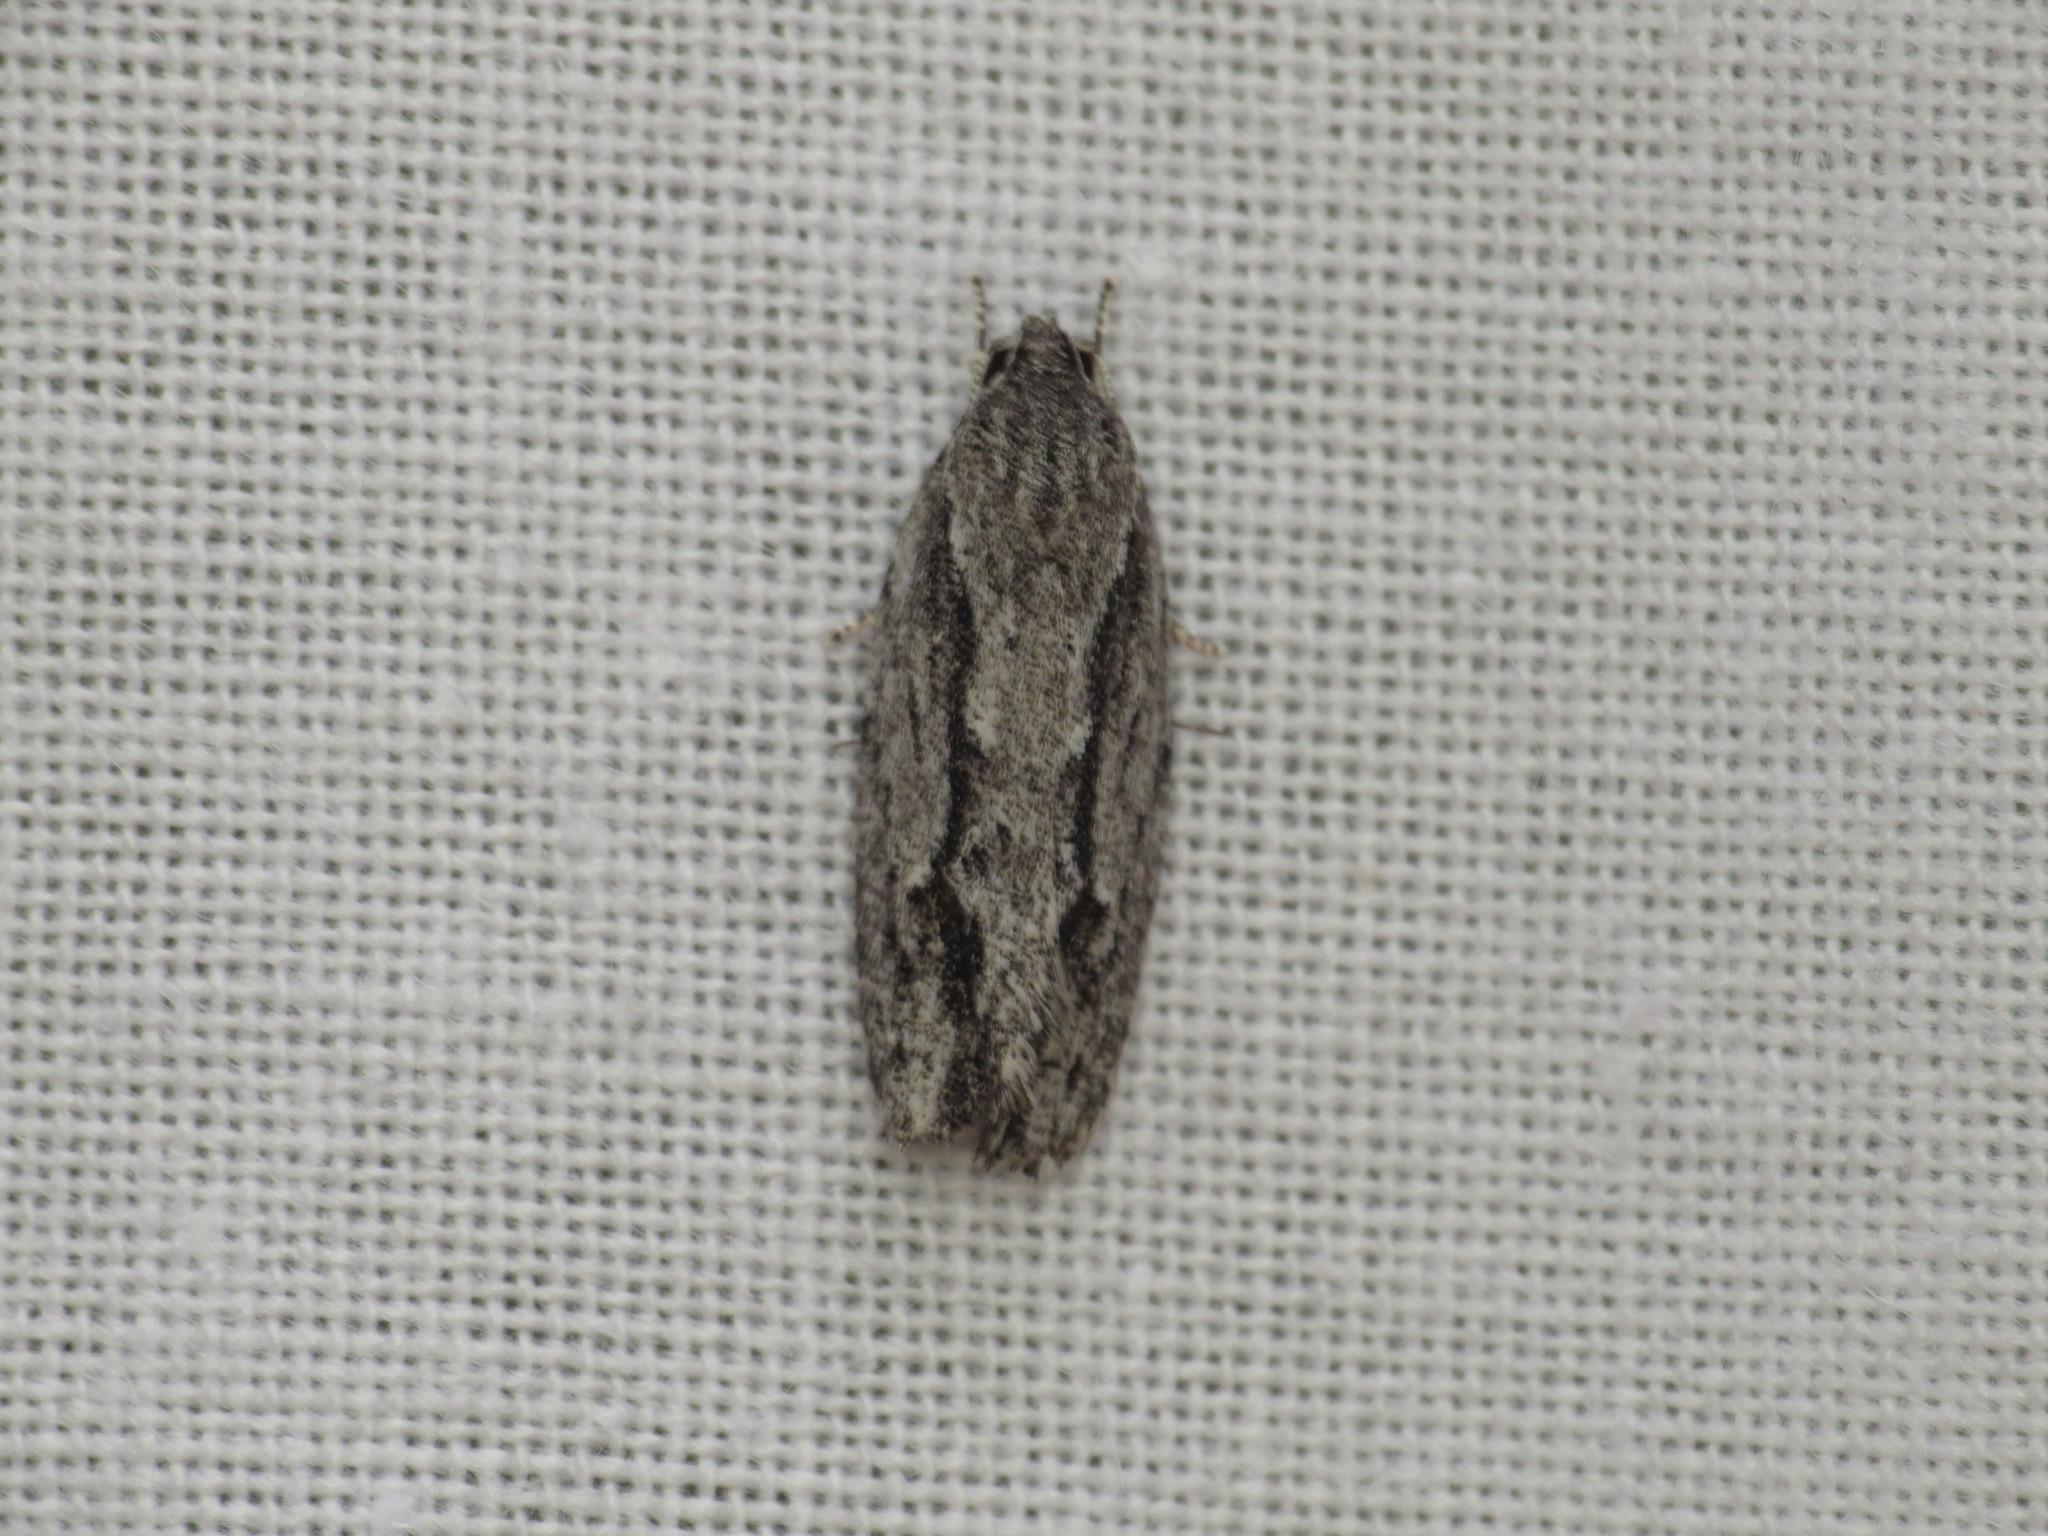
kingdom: Animalia
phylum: Arthropoda
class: Insecta
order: Lepidoptera
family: Depressariidae
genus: Agriophara
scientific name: Agriophara leptosemela
